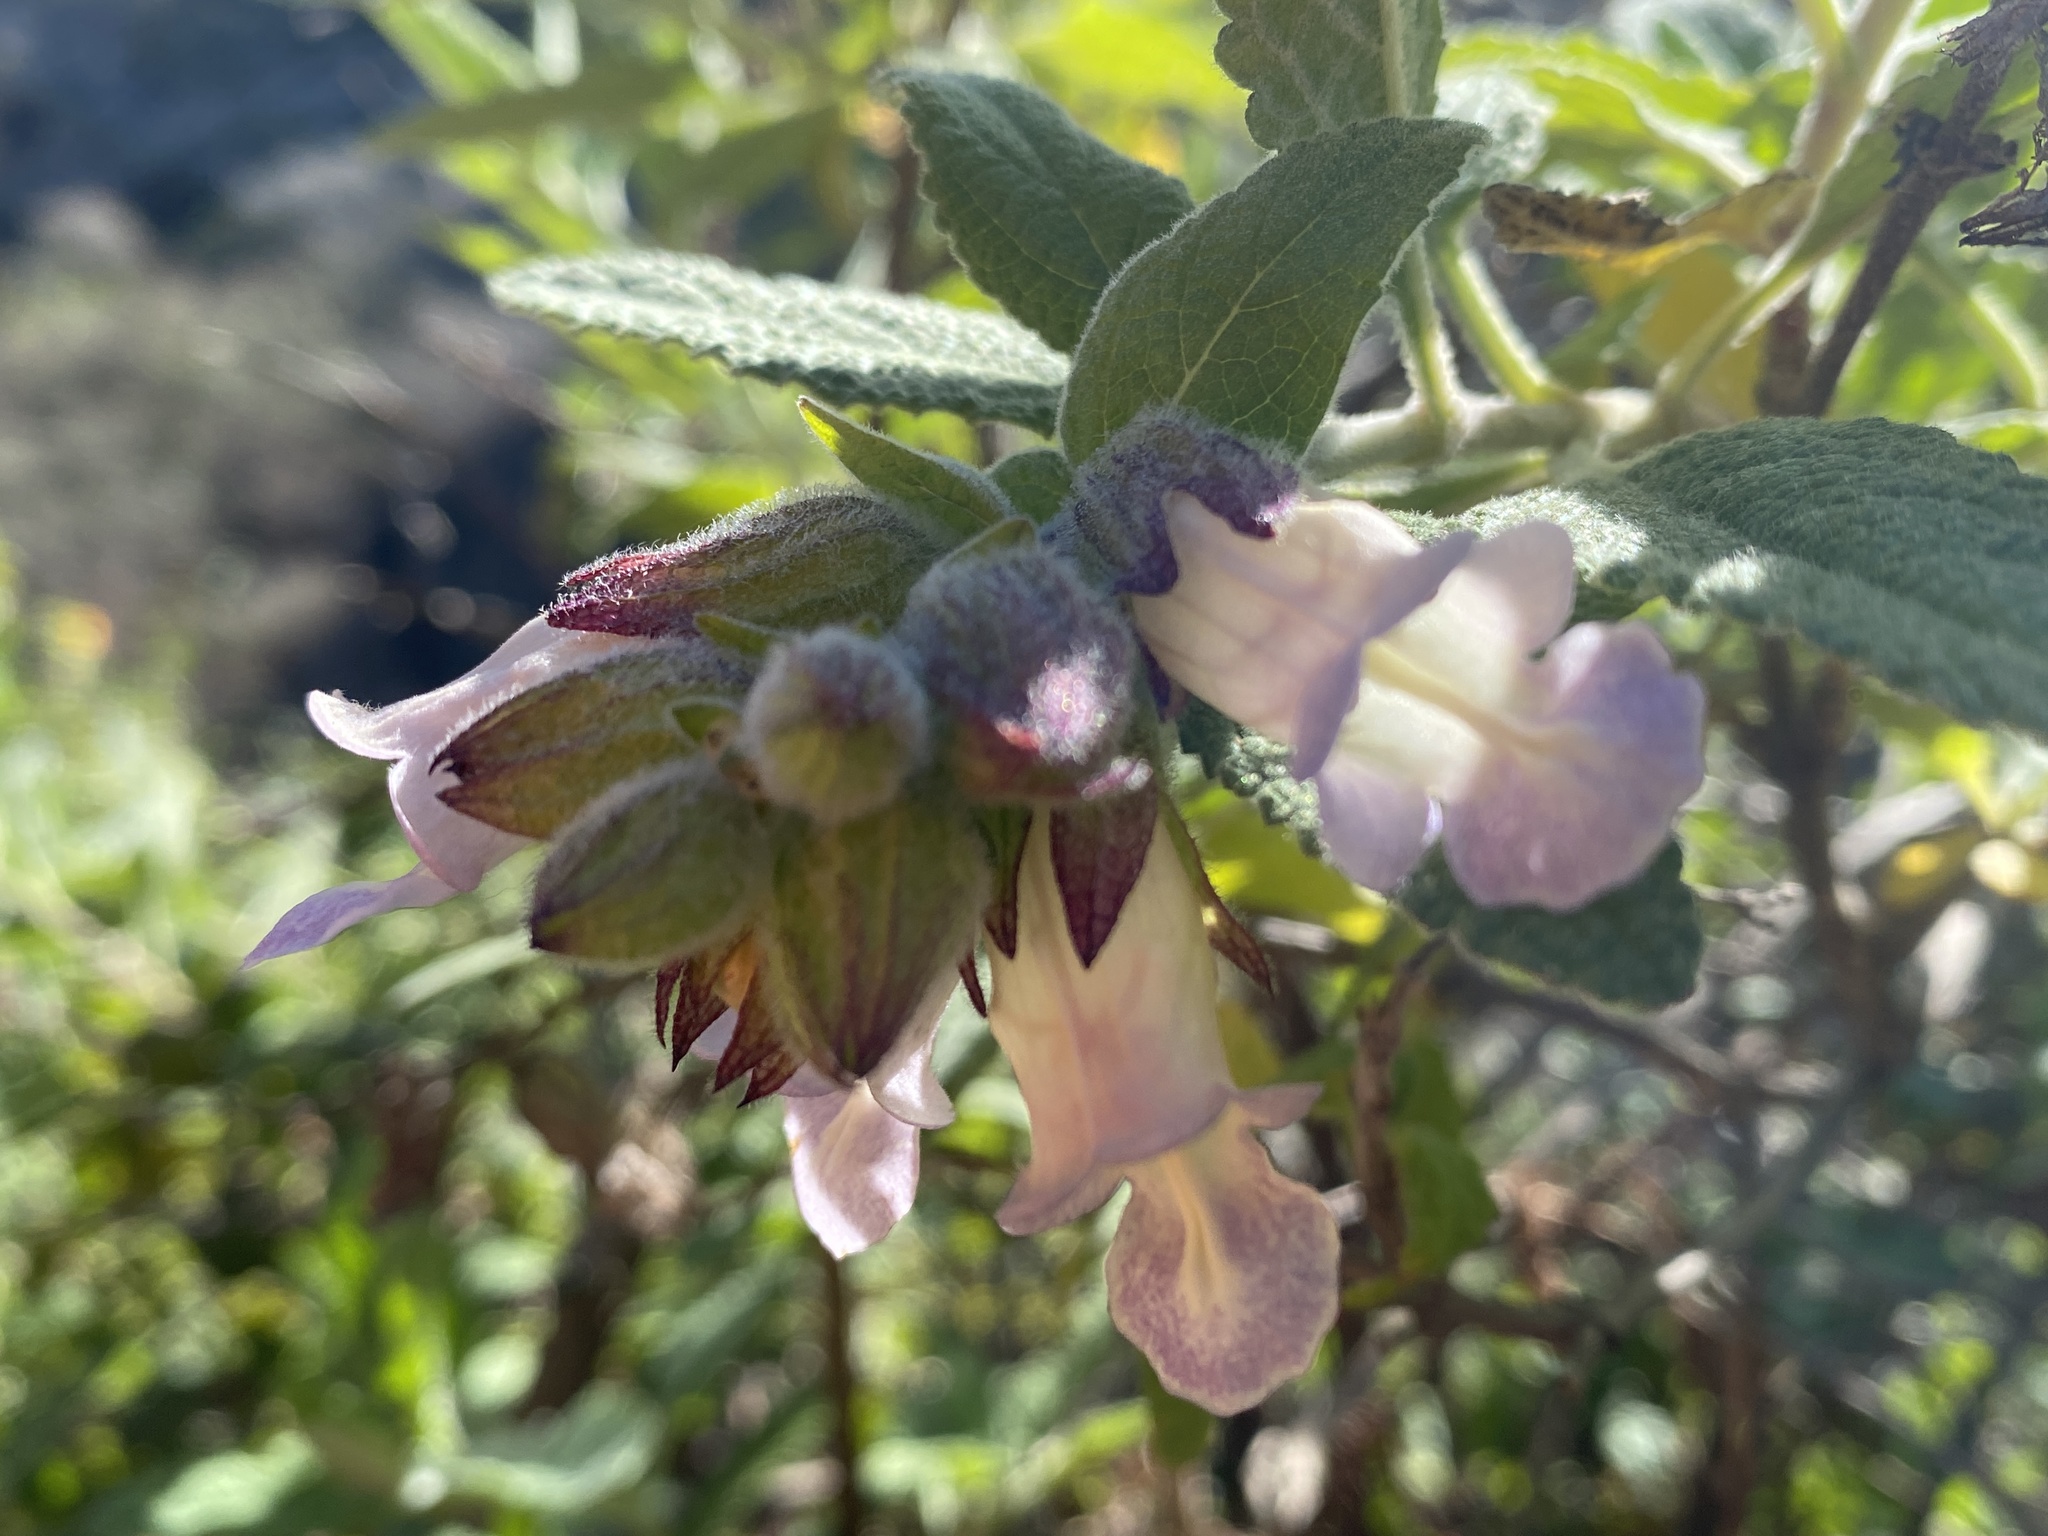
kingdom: Plantae
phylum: Tracheophyta
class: Magnoliopsida
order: Lamiales
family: Lamiaceae
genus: Lepechinia
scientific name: Lepechinia calycina
